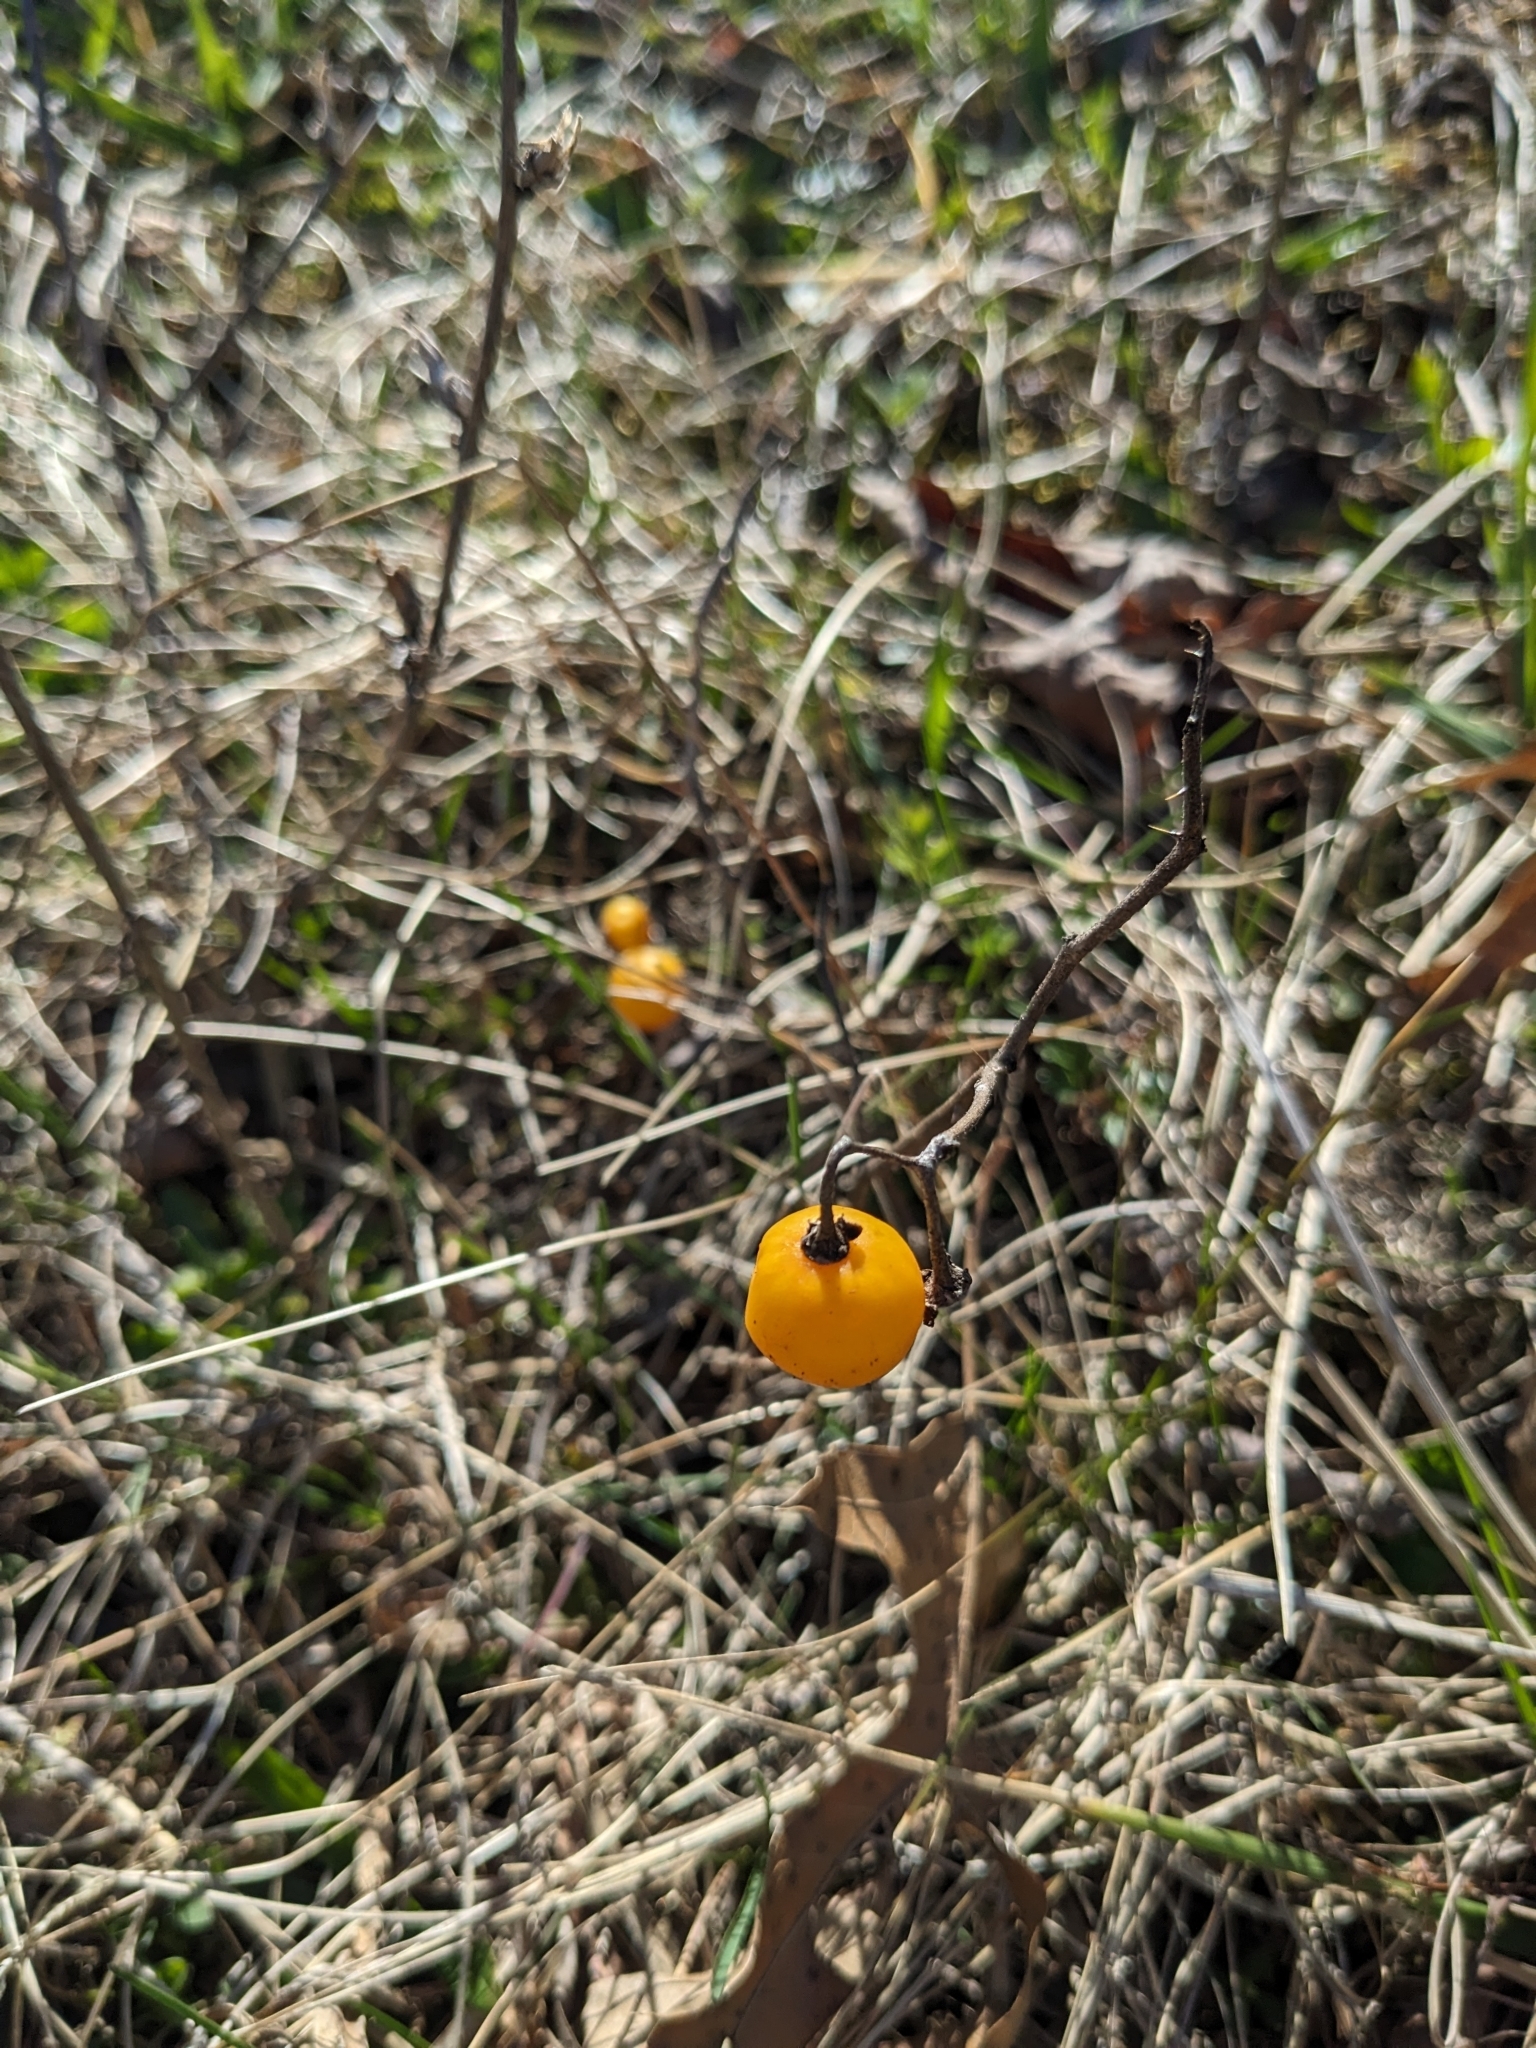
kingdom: Plantae
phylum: Tracheophyta
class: Magnoliopsida
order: Solanales
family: Solanaceae
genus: Solanum
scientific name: Solanum carolinense
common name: Horse-nettle
